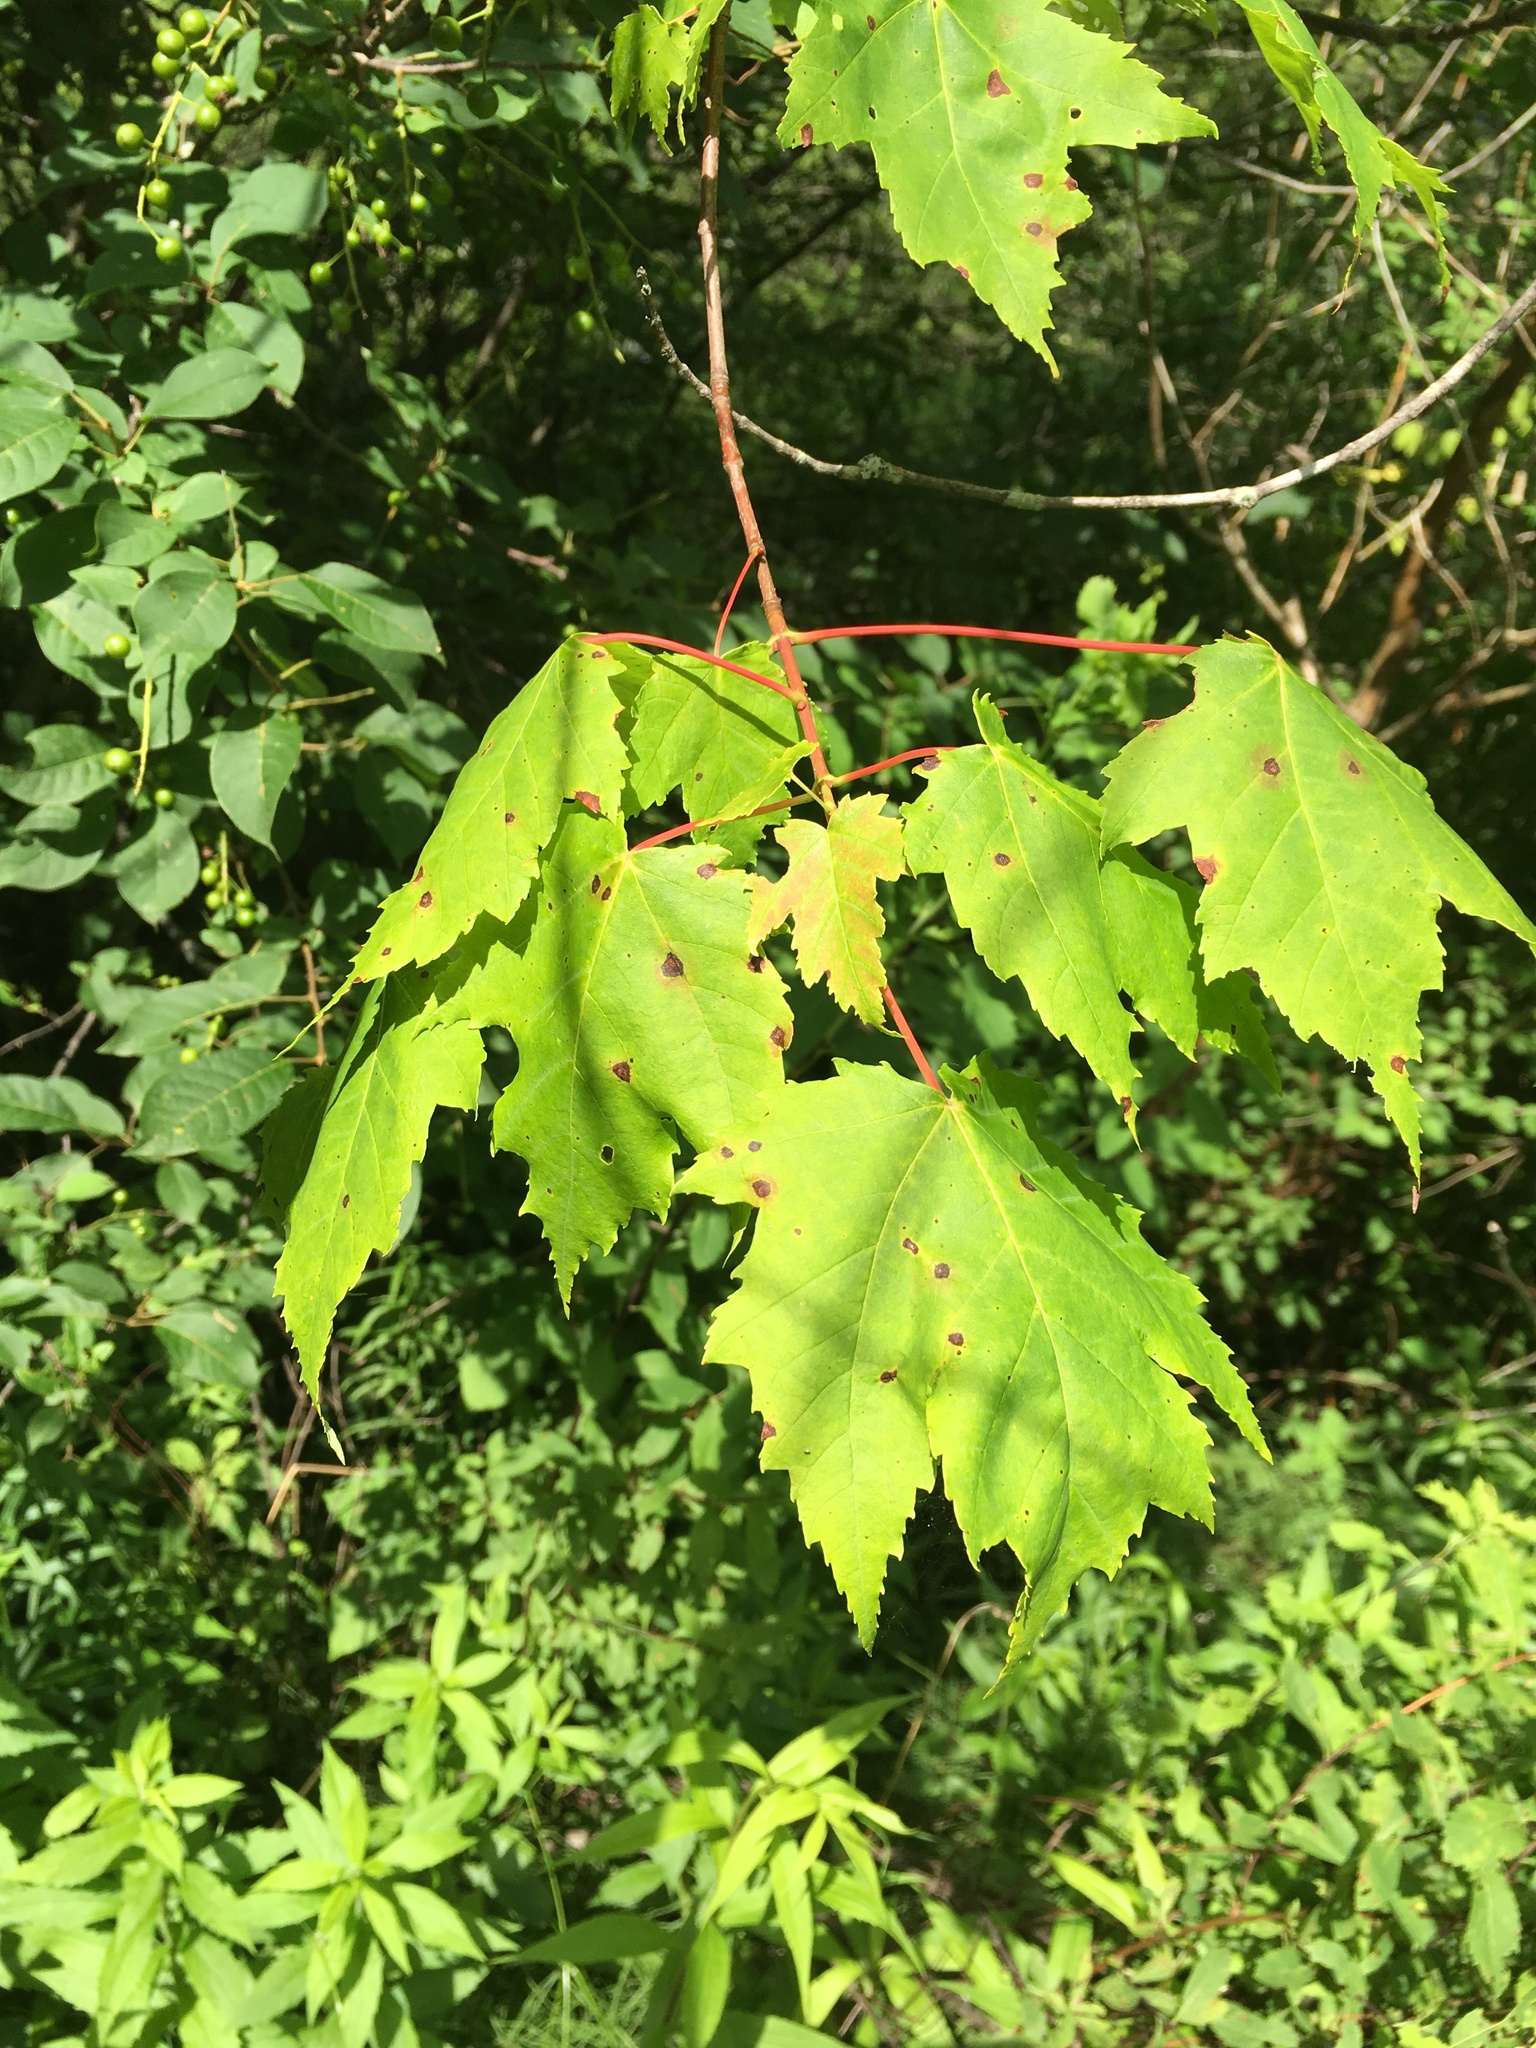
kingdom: Plantae
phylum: Tracheophyta
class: Magnoliopsida
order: Sapindales
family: Sapindaceae
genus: Acer
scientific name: Acer rubrum
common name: Red maple
